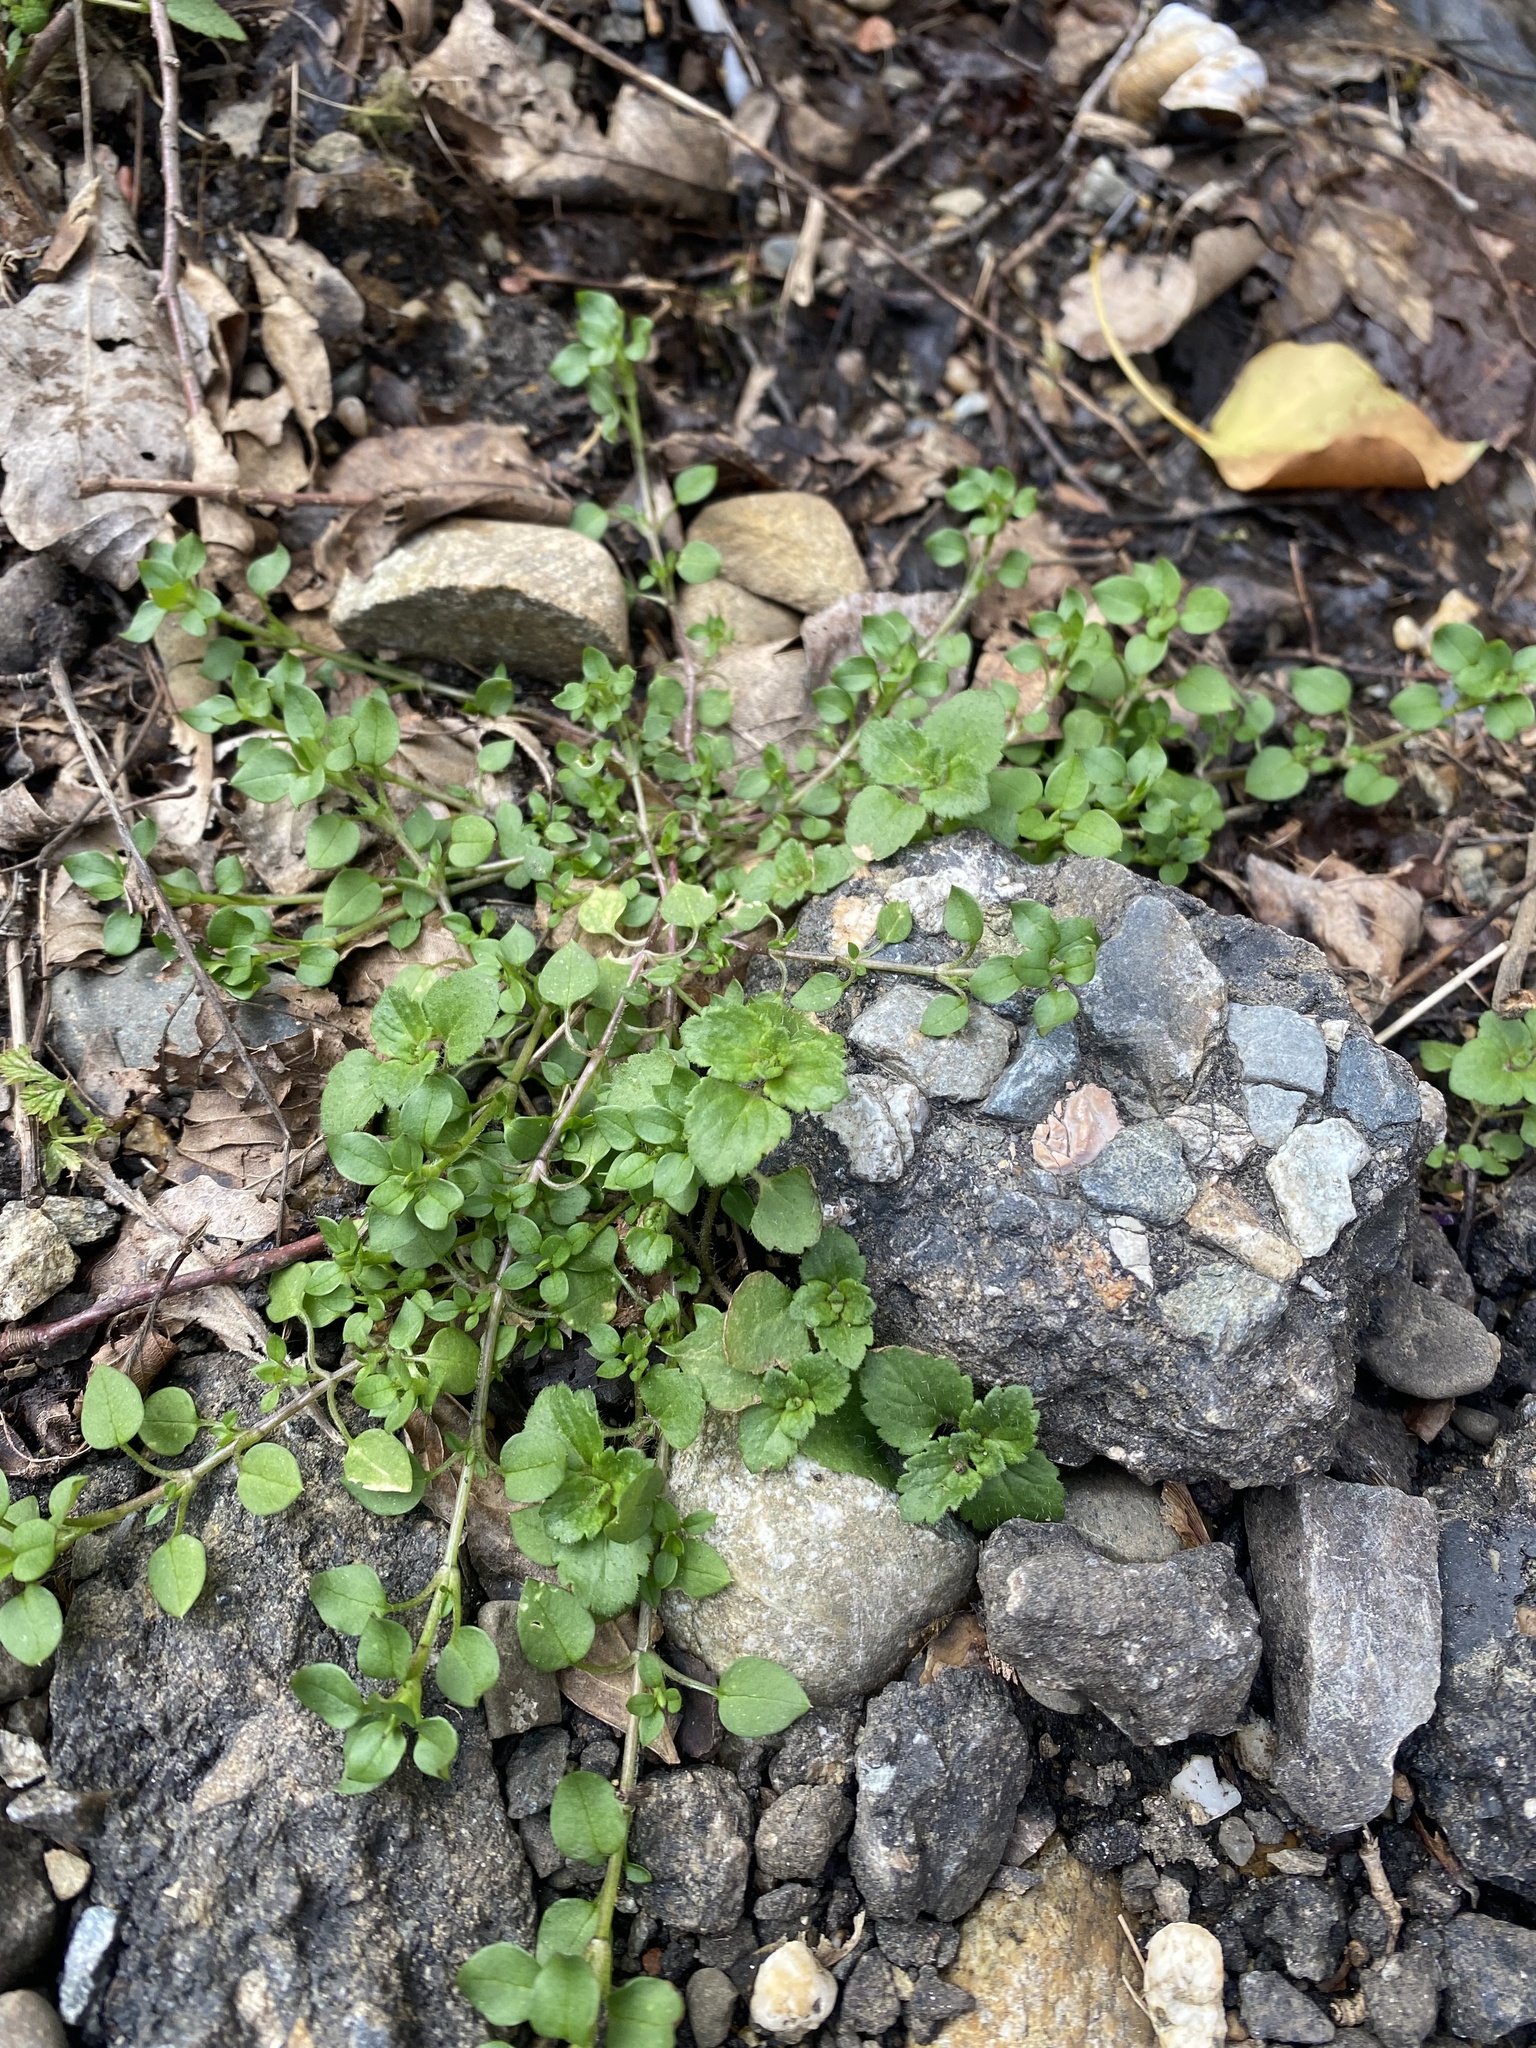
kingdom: Plantae
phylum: Tracheophyta
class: Magnoliopsida
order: Lamiales
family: Plantaginaceae
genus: Veronica
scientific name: Veronica persica
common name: Common field-speedwell
